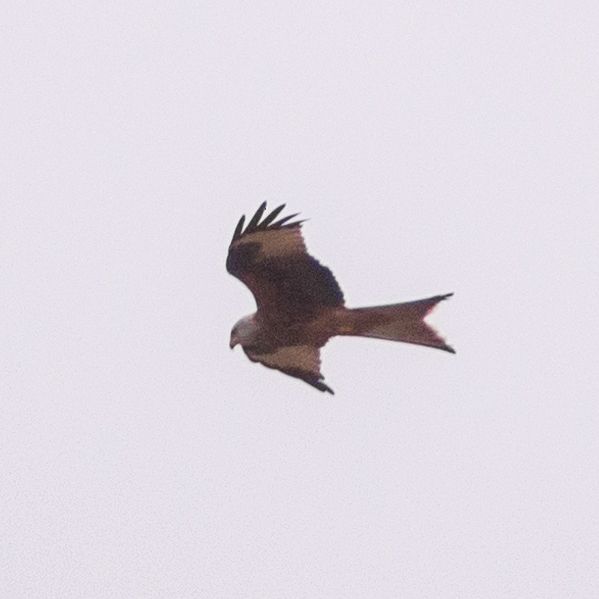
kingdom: Animalia
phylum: Chordata
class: Aves
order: Accipitriformes
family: Accipitridae
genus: Milvus
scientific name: Milvus milvus
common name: Red kite
